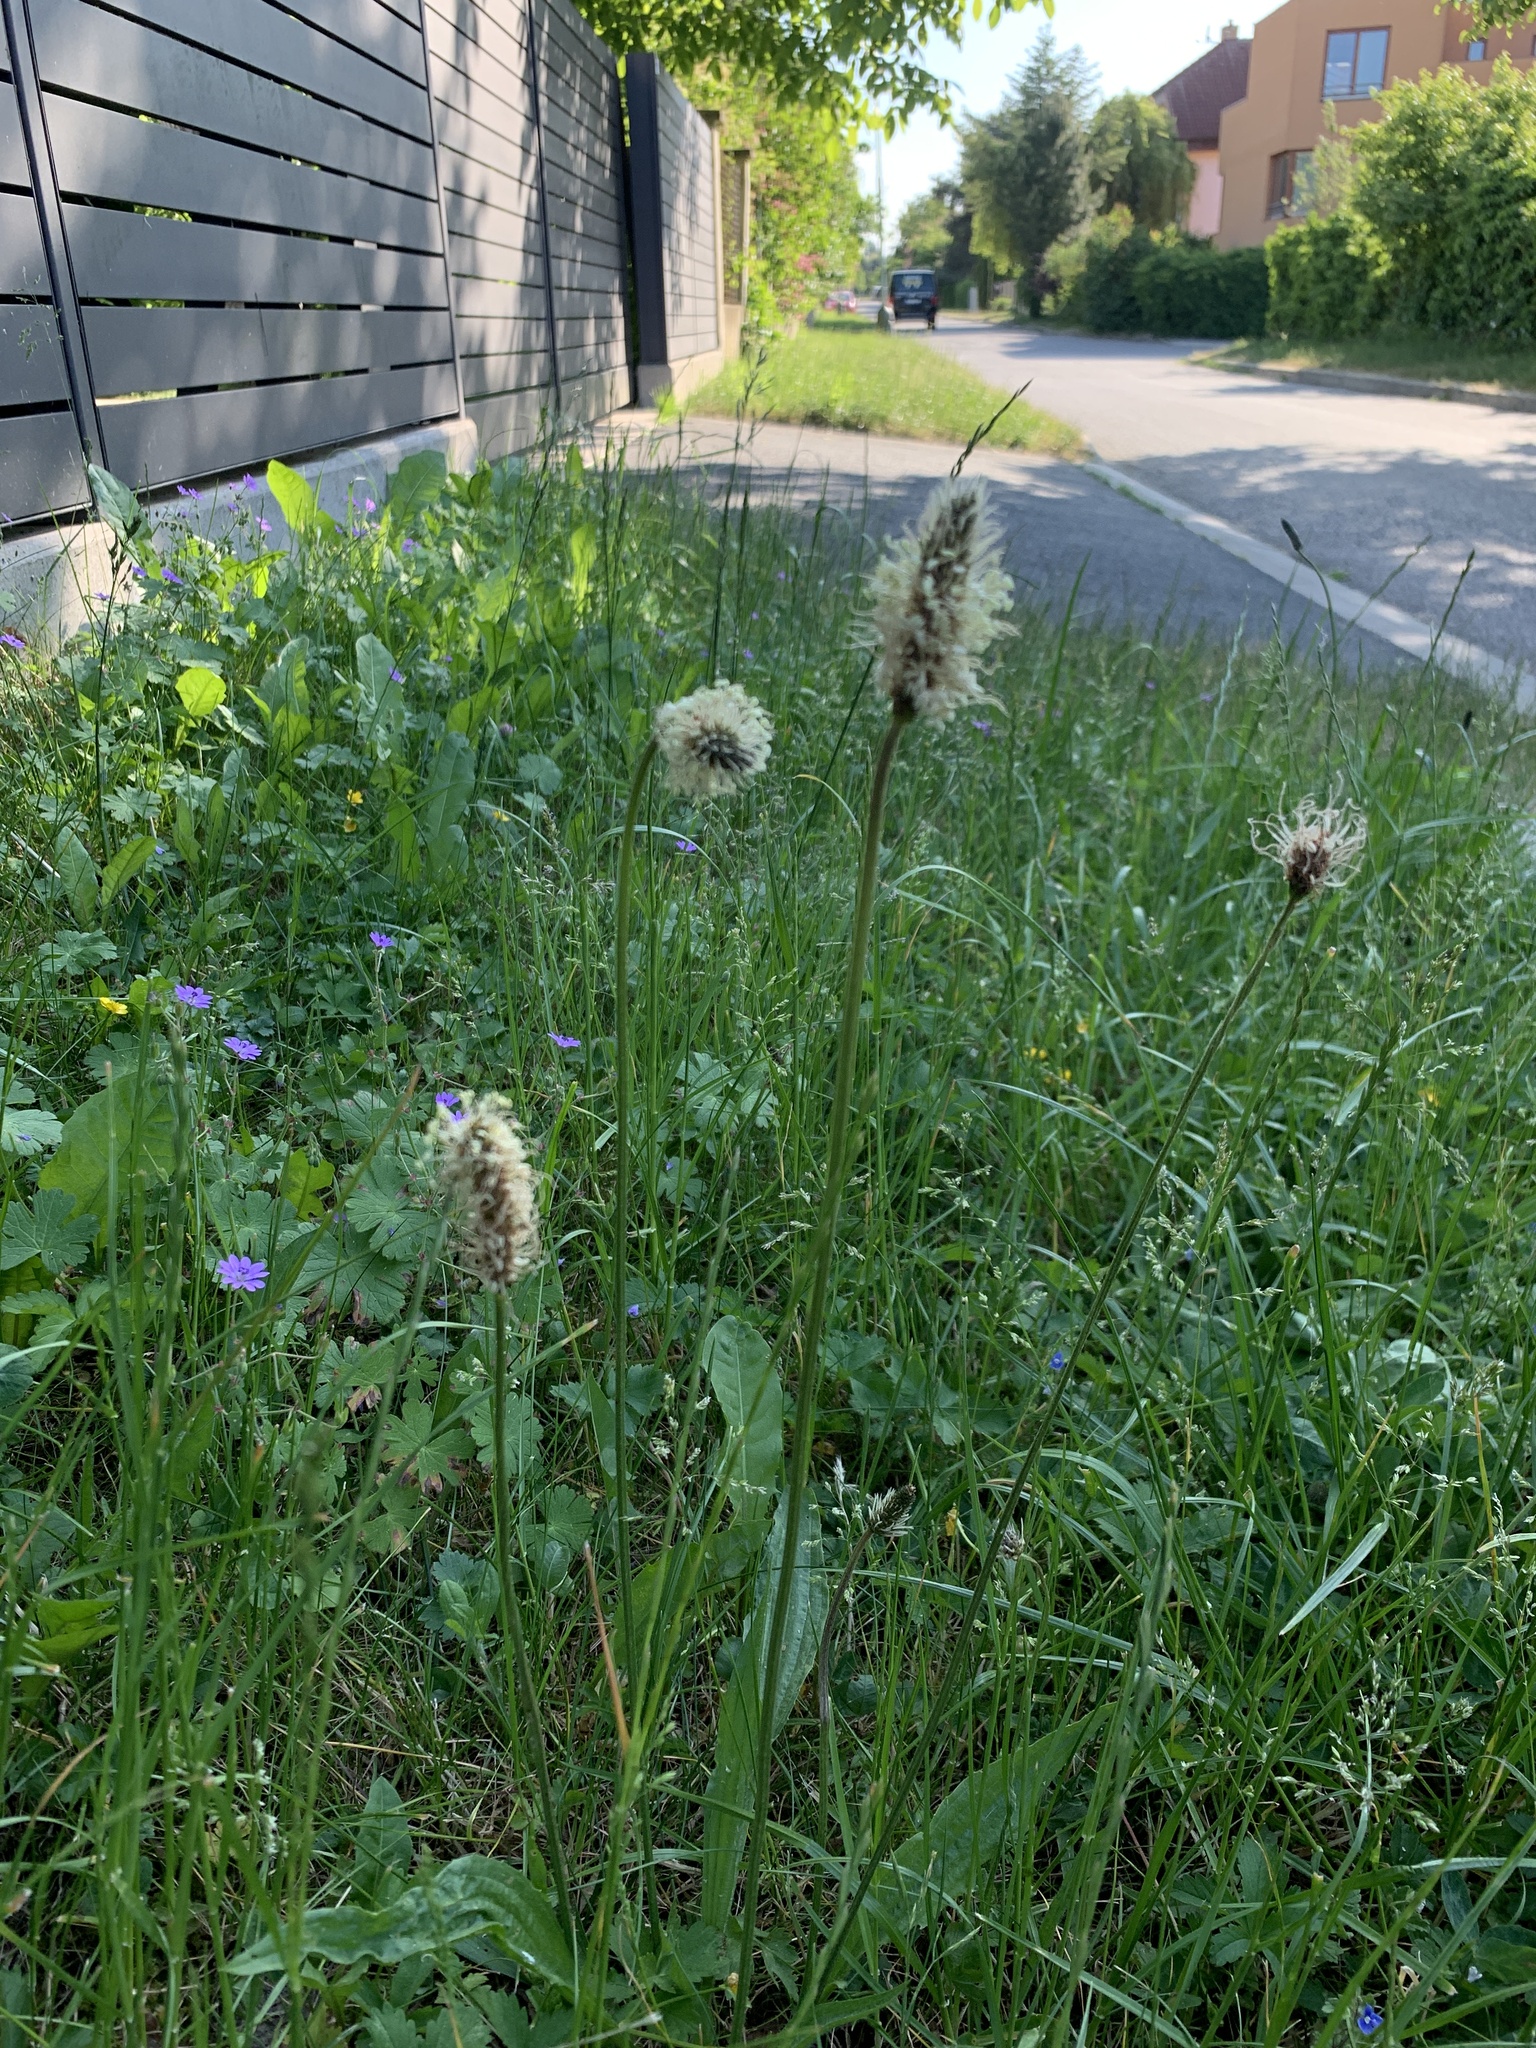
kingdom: Plantae
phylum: Tracheophyta
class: Magnoliopsida
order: Lamiales
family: Plantaginaceae
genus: Plantago
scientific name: Plantago lanceolata
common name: Ribwort plantain
